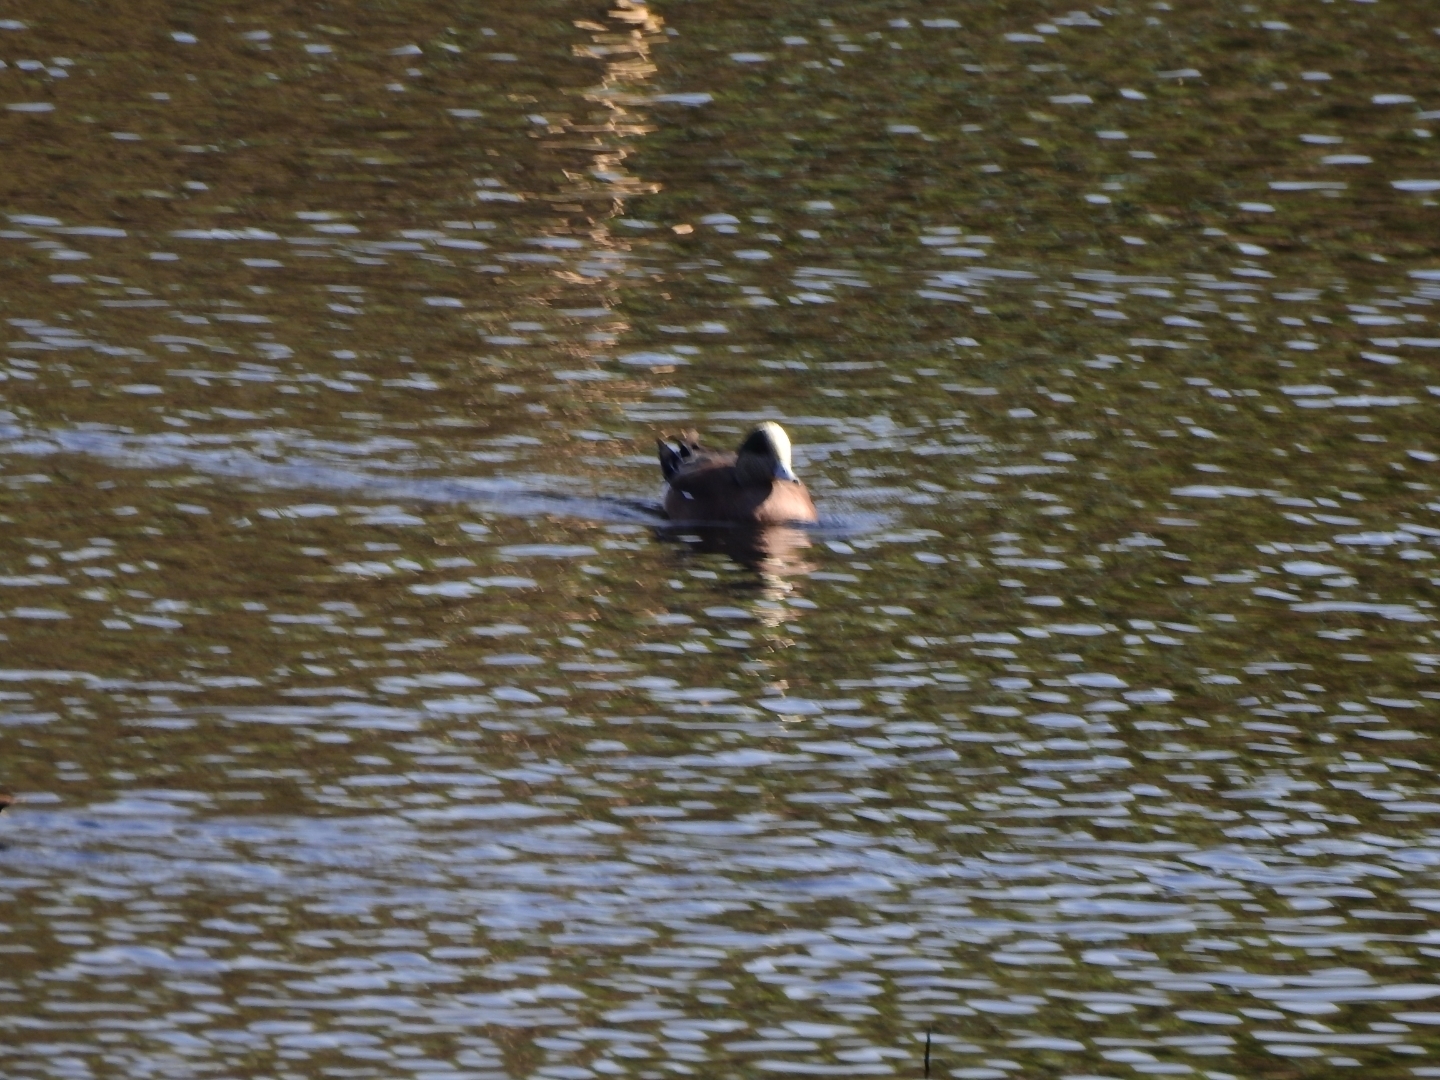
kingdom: Animalia
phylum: Chordata
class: Aves
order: Anseriformes
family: Anatidae
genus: Mareca
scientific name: Mareca americana
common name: American wigeon
